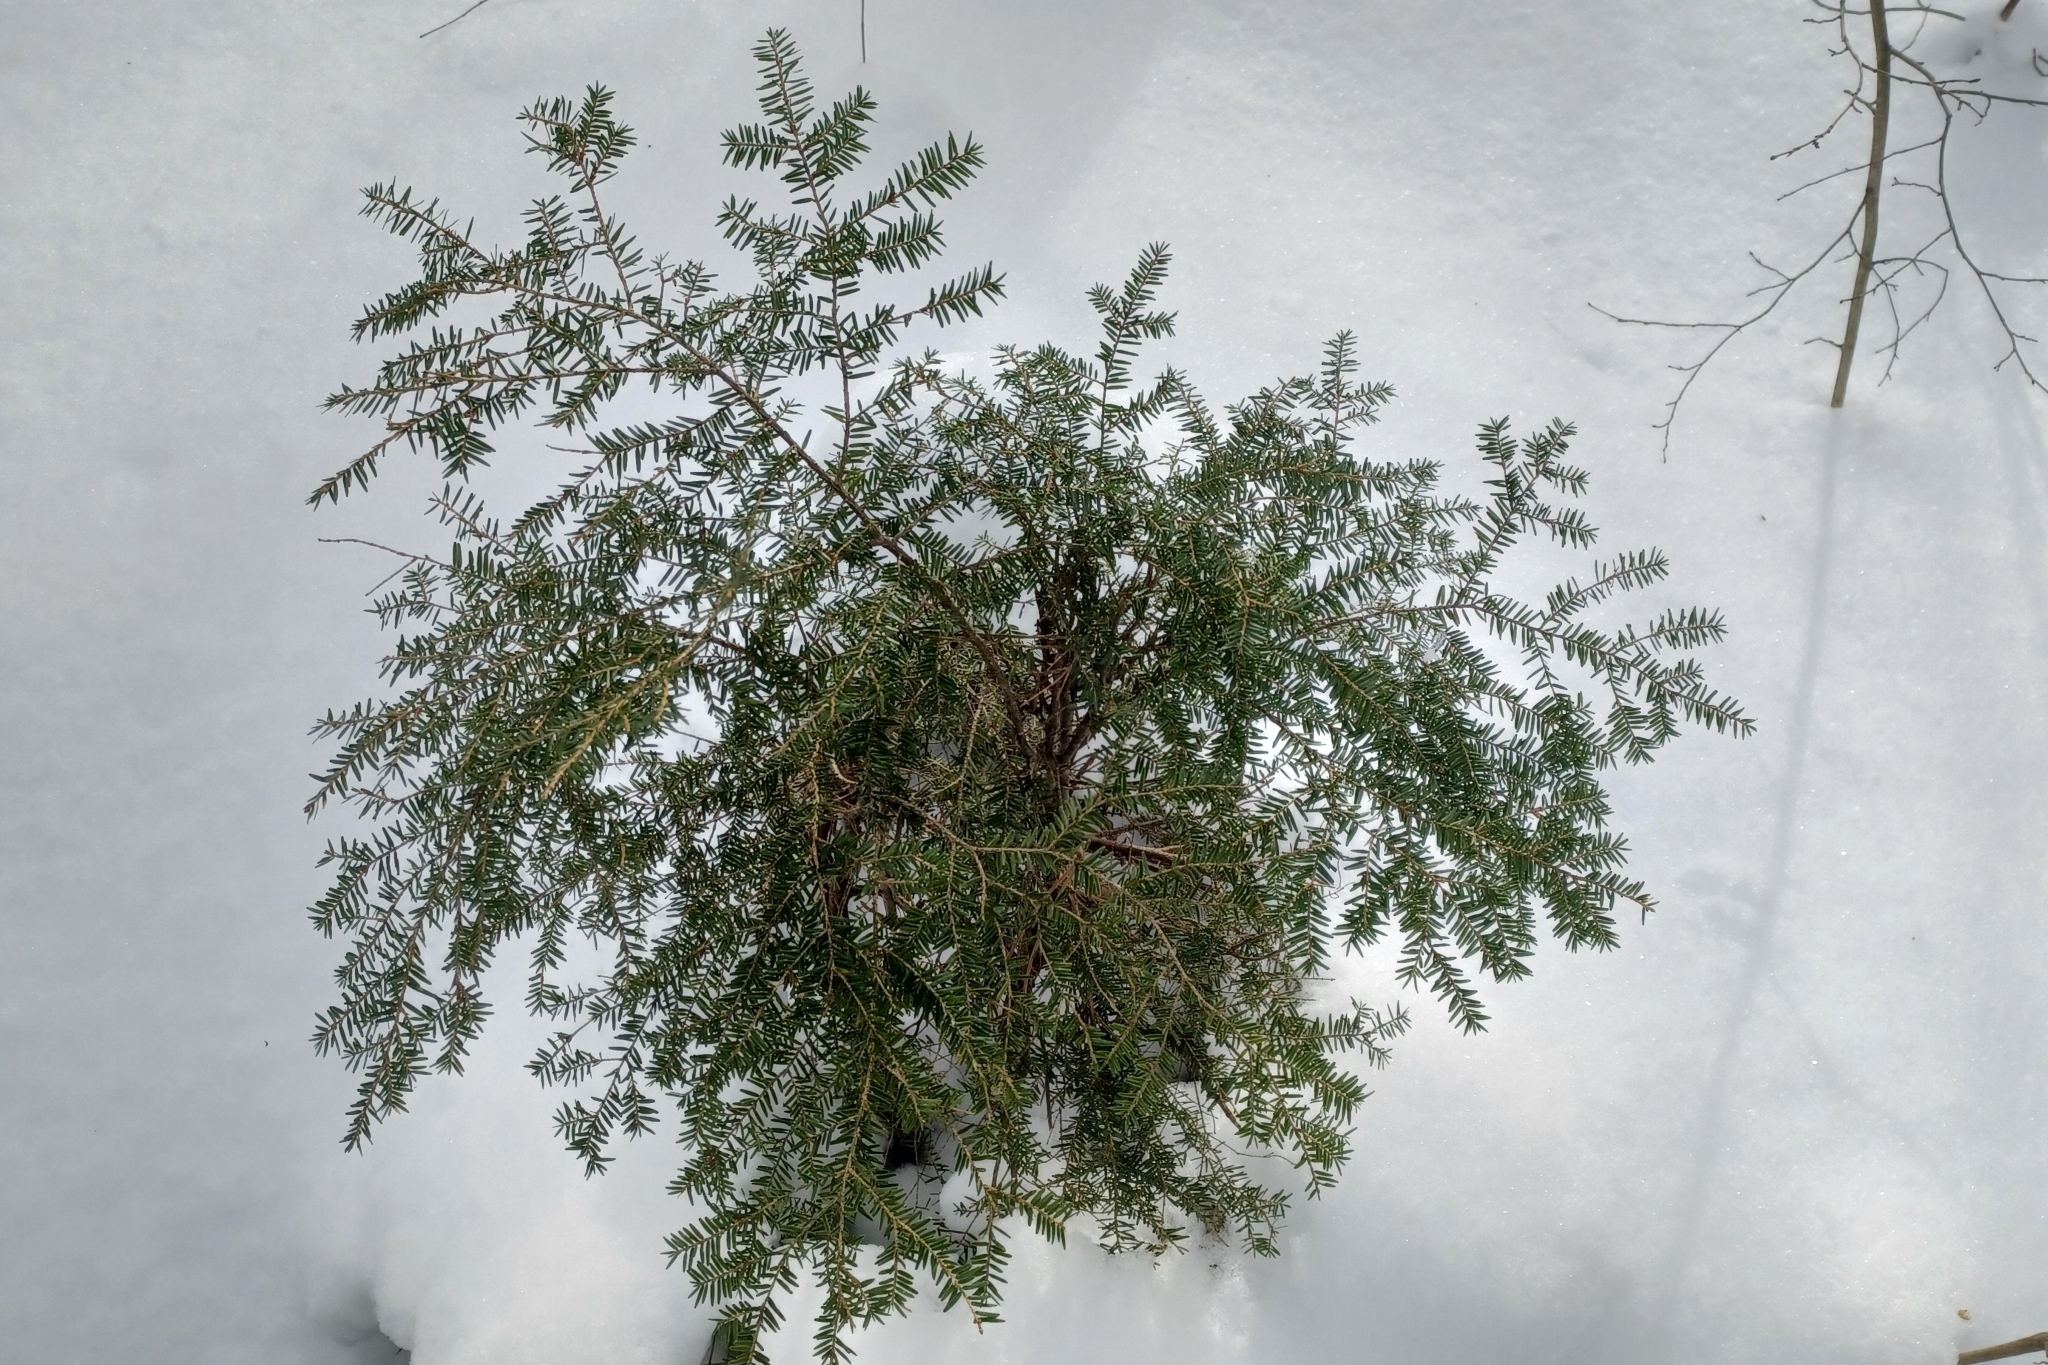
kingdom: Plantae
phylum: Tracheophyta
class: Pinopsida
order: Pinales
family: Pinaceae
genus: Tsuga
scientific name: Tsuga canadensis
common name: Eastern hemlock
